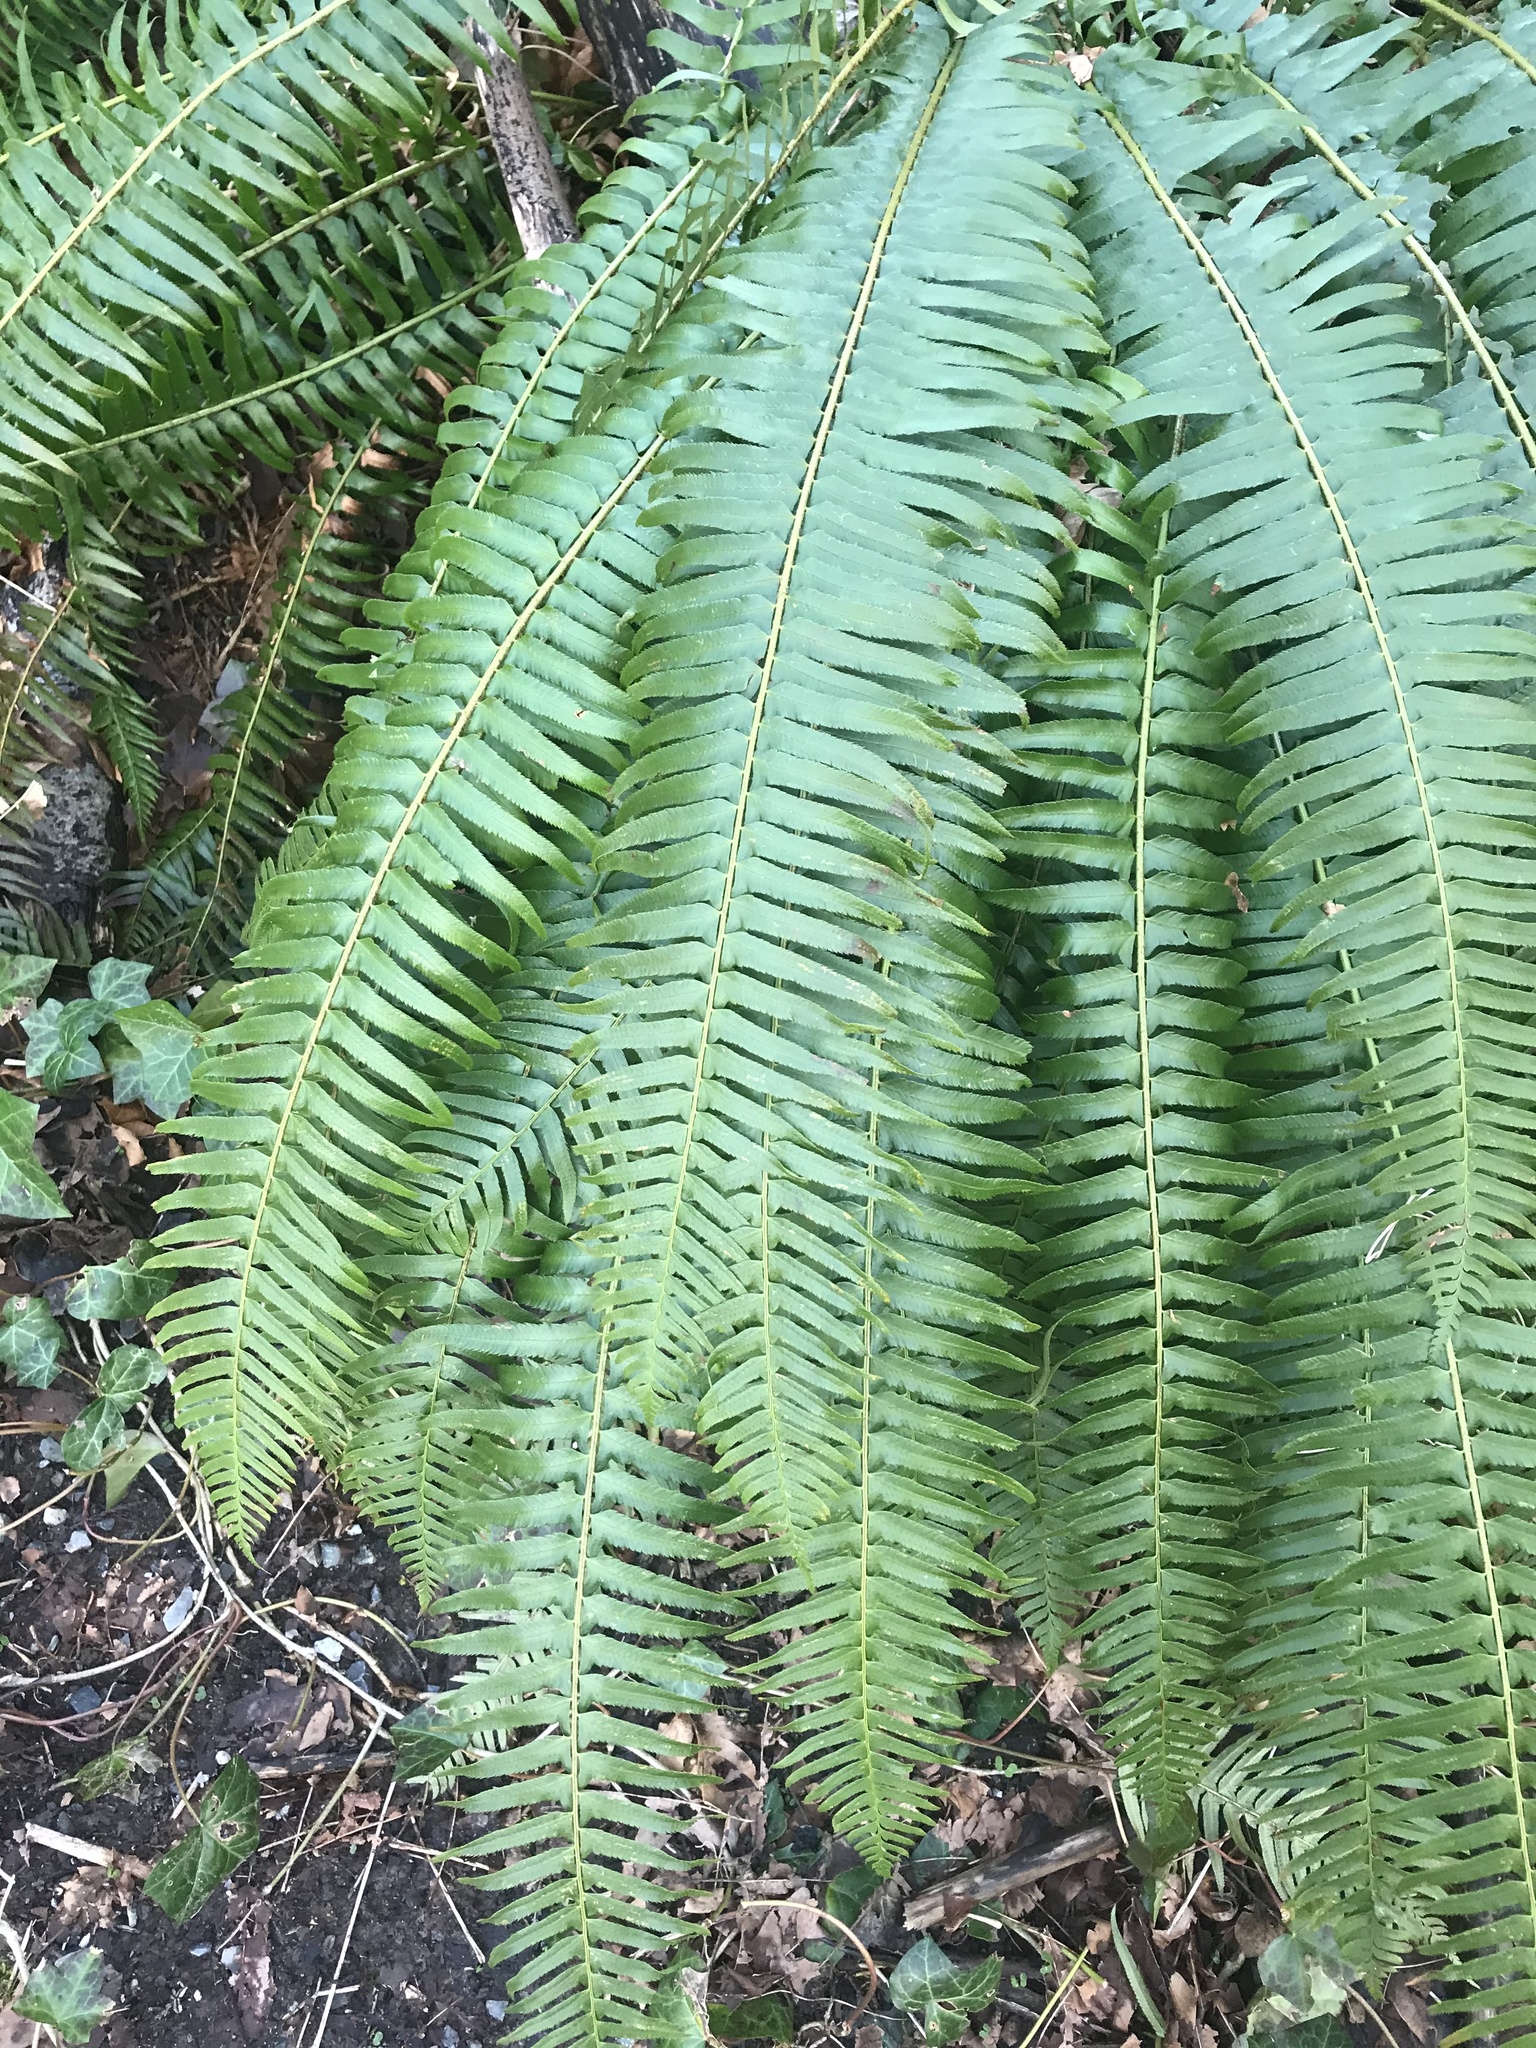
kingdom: Plantae
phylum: Tracheophyta
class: Polypodiopsida
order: Polypodiales
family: Dryopteridaceae
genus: Polystichum
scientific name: Polystichum munitum
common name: Western sword-fern
